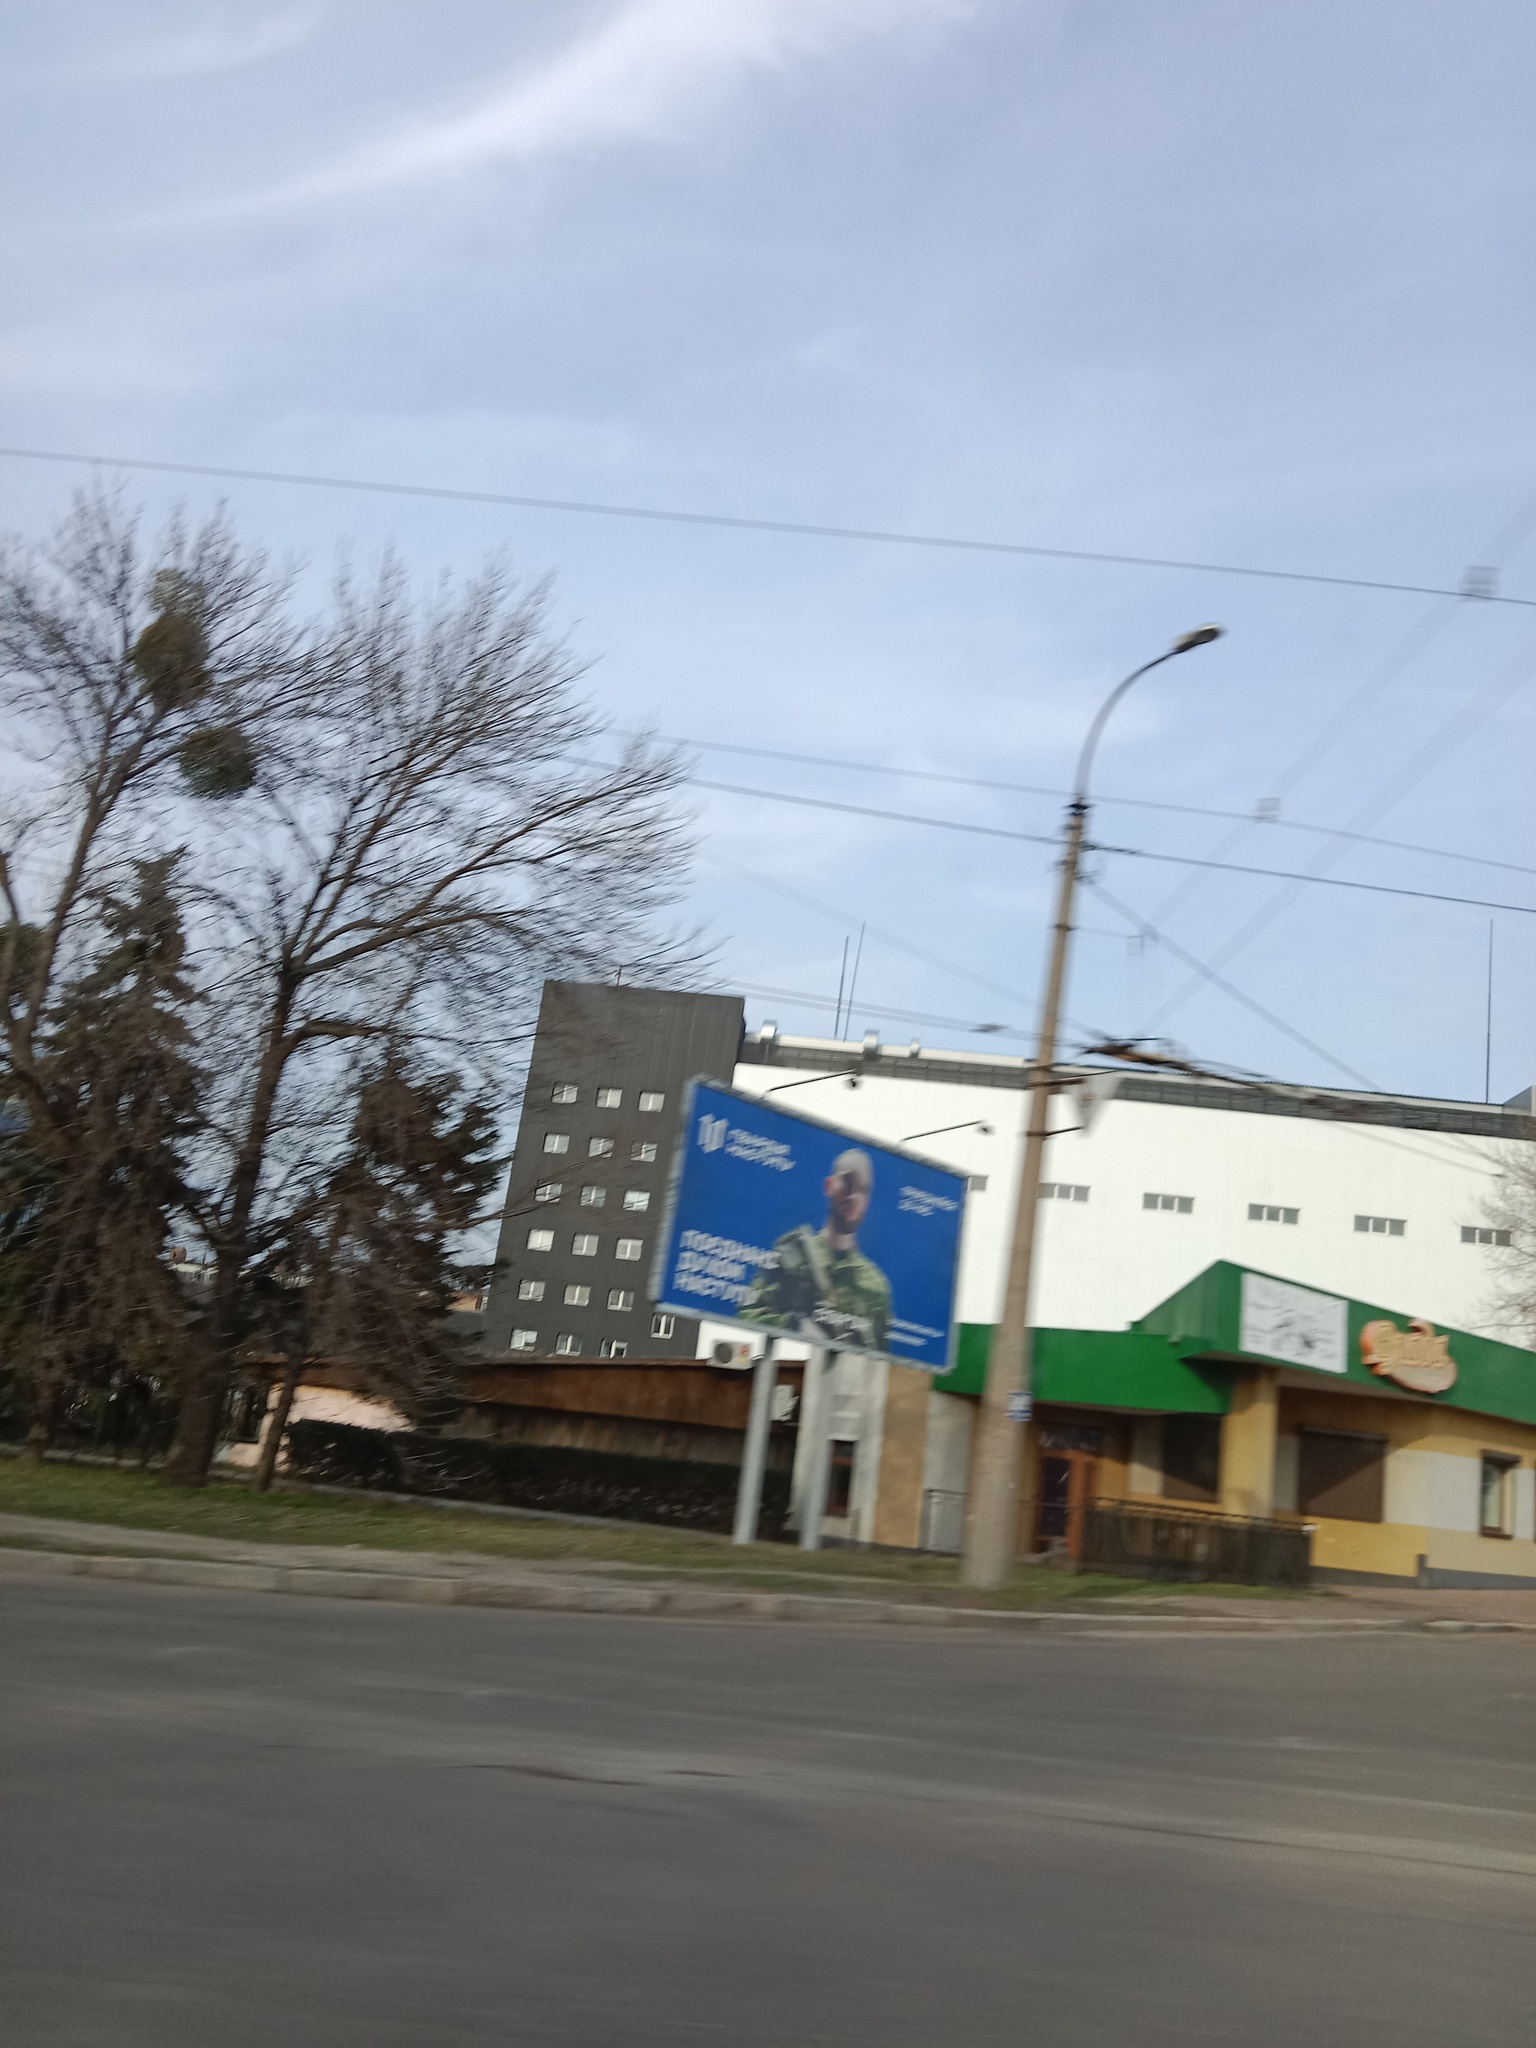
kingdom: Plantae
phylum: Tracheophyta
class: Magnoliopsida
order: Santalales
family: Viscaceae
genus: Viscum
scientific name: Viscum album
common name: Mistletoe
